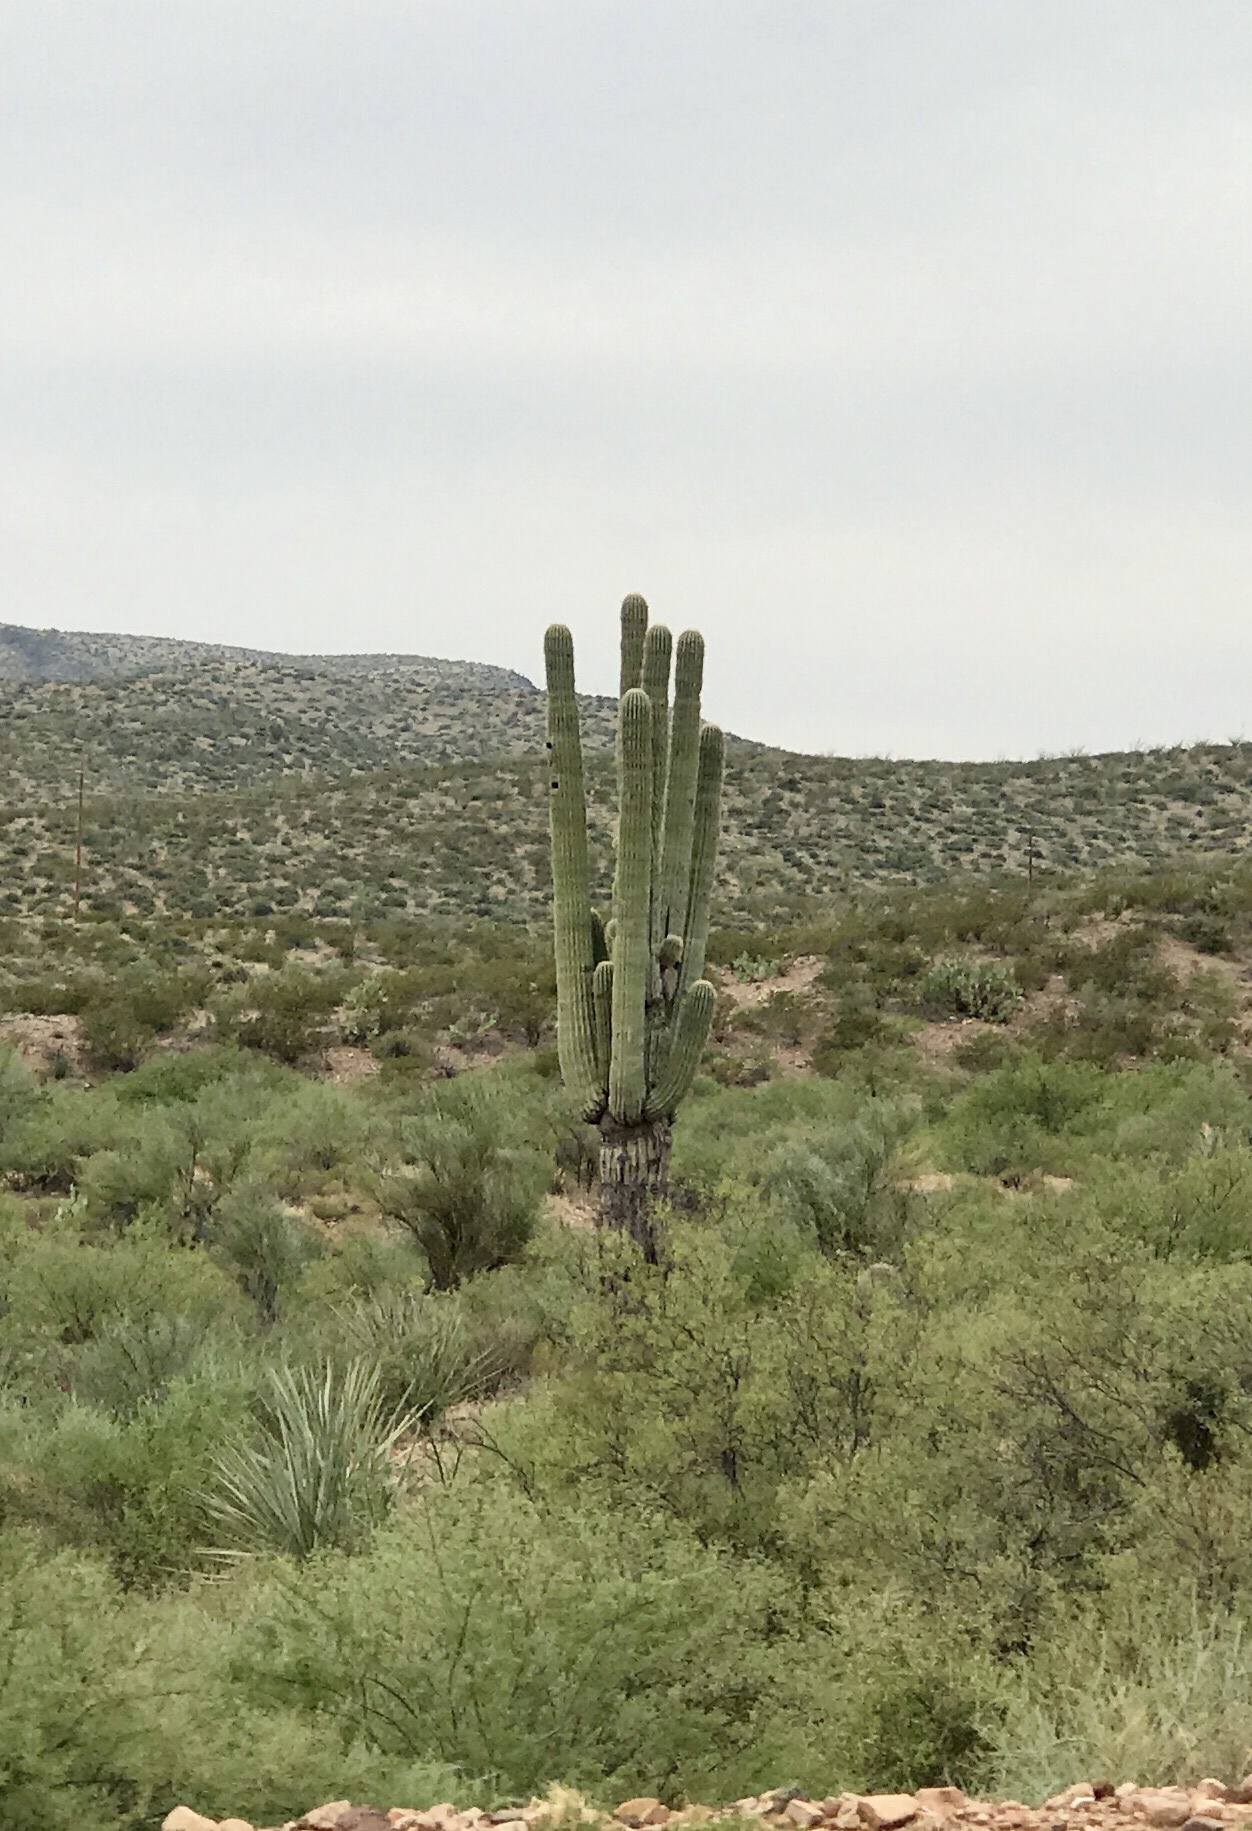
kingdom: Plantae
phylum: Tracheophyta
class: Magnoliopsida
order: Caryophyllales
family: Cactaceae
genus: Carnegiea
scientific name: Carnegiea gigantea
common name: Saguaro
